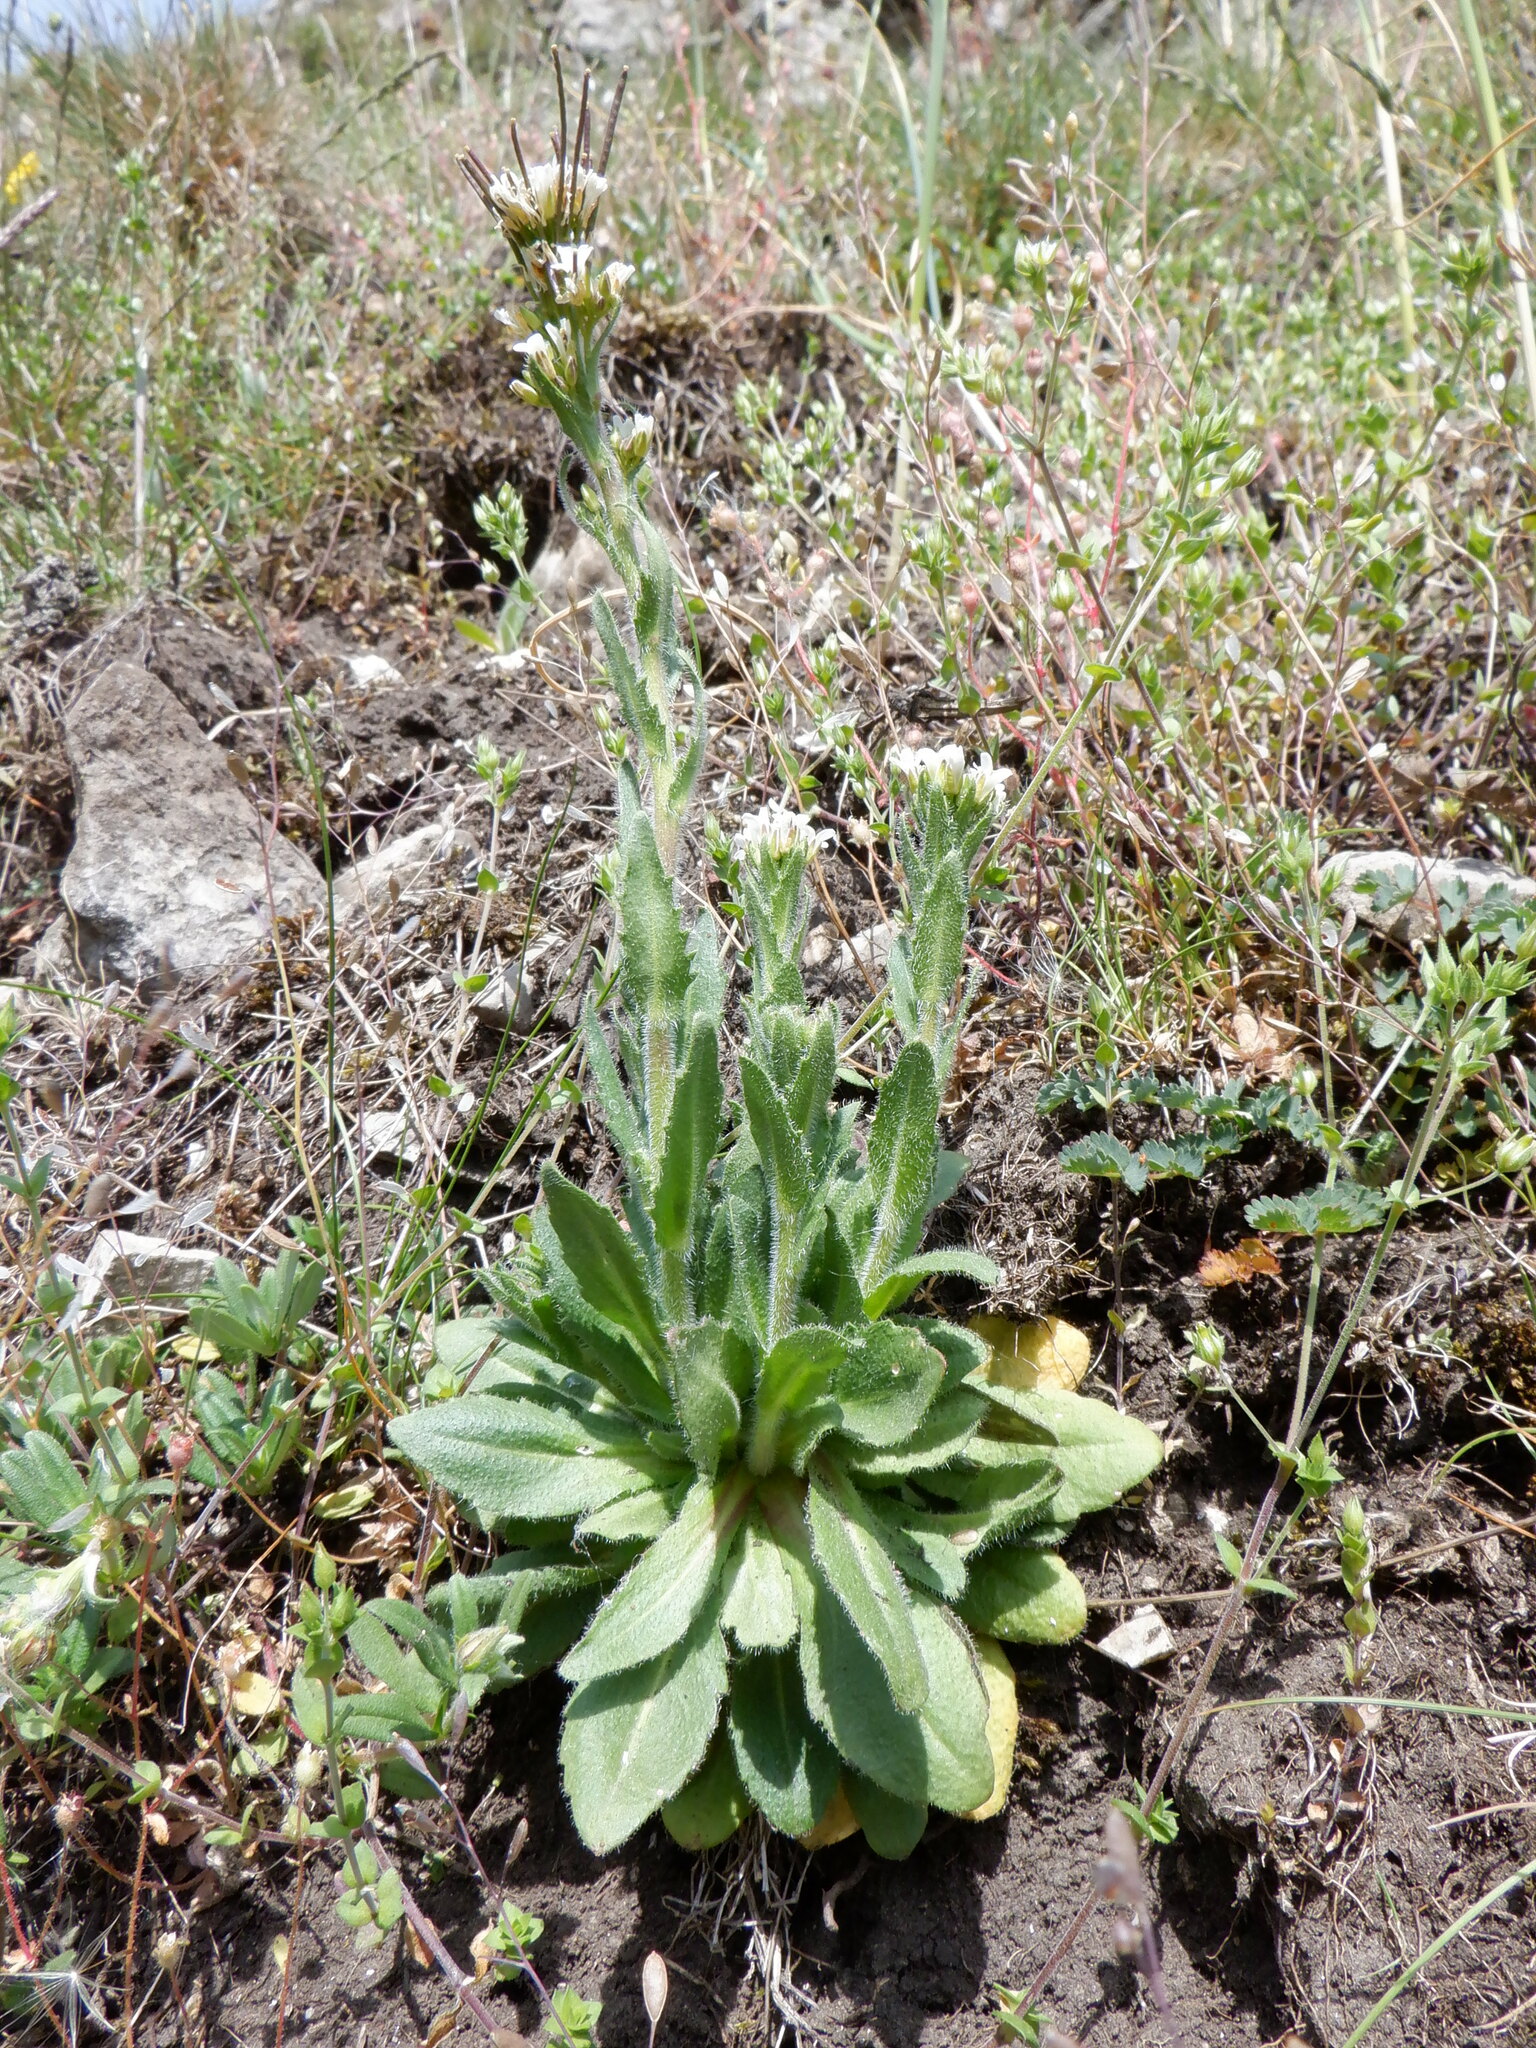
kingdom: Plantae
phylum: Tracheophyta
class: Magnoliopsida
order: Brassicales
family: Brassicaceae
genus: Arabis
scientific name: Arabis hirsuta
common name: Hairy rock-cress
